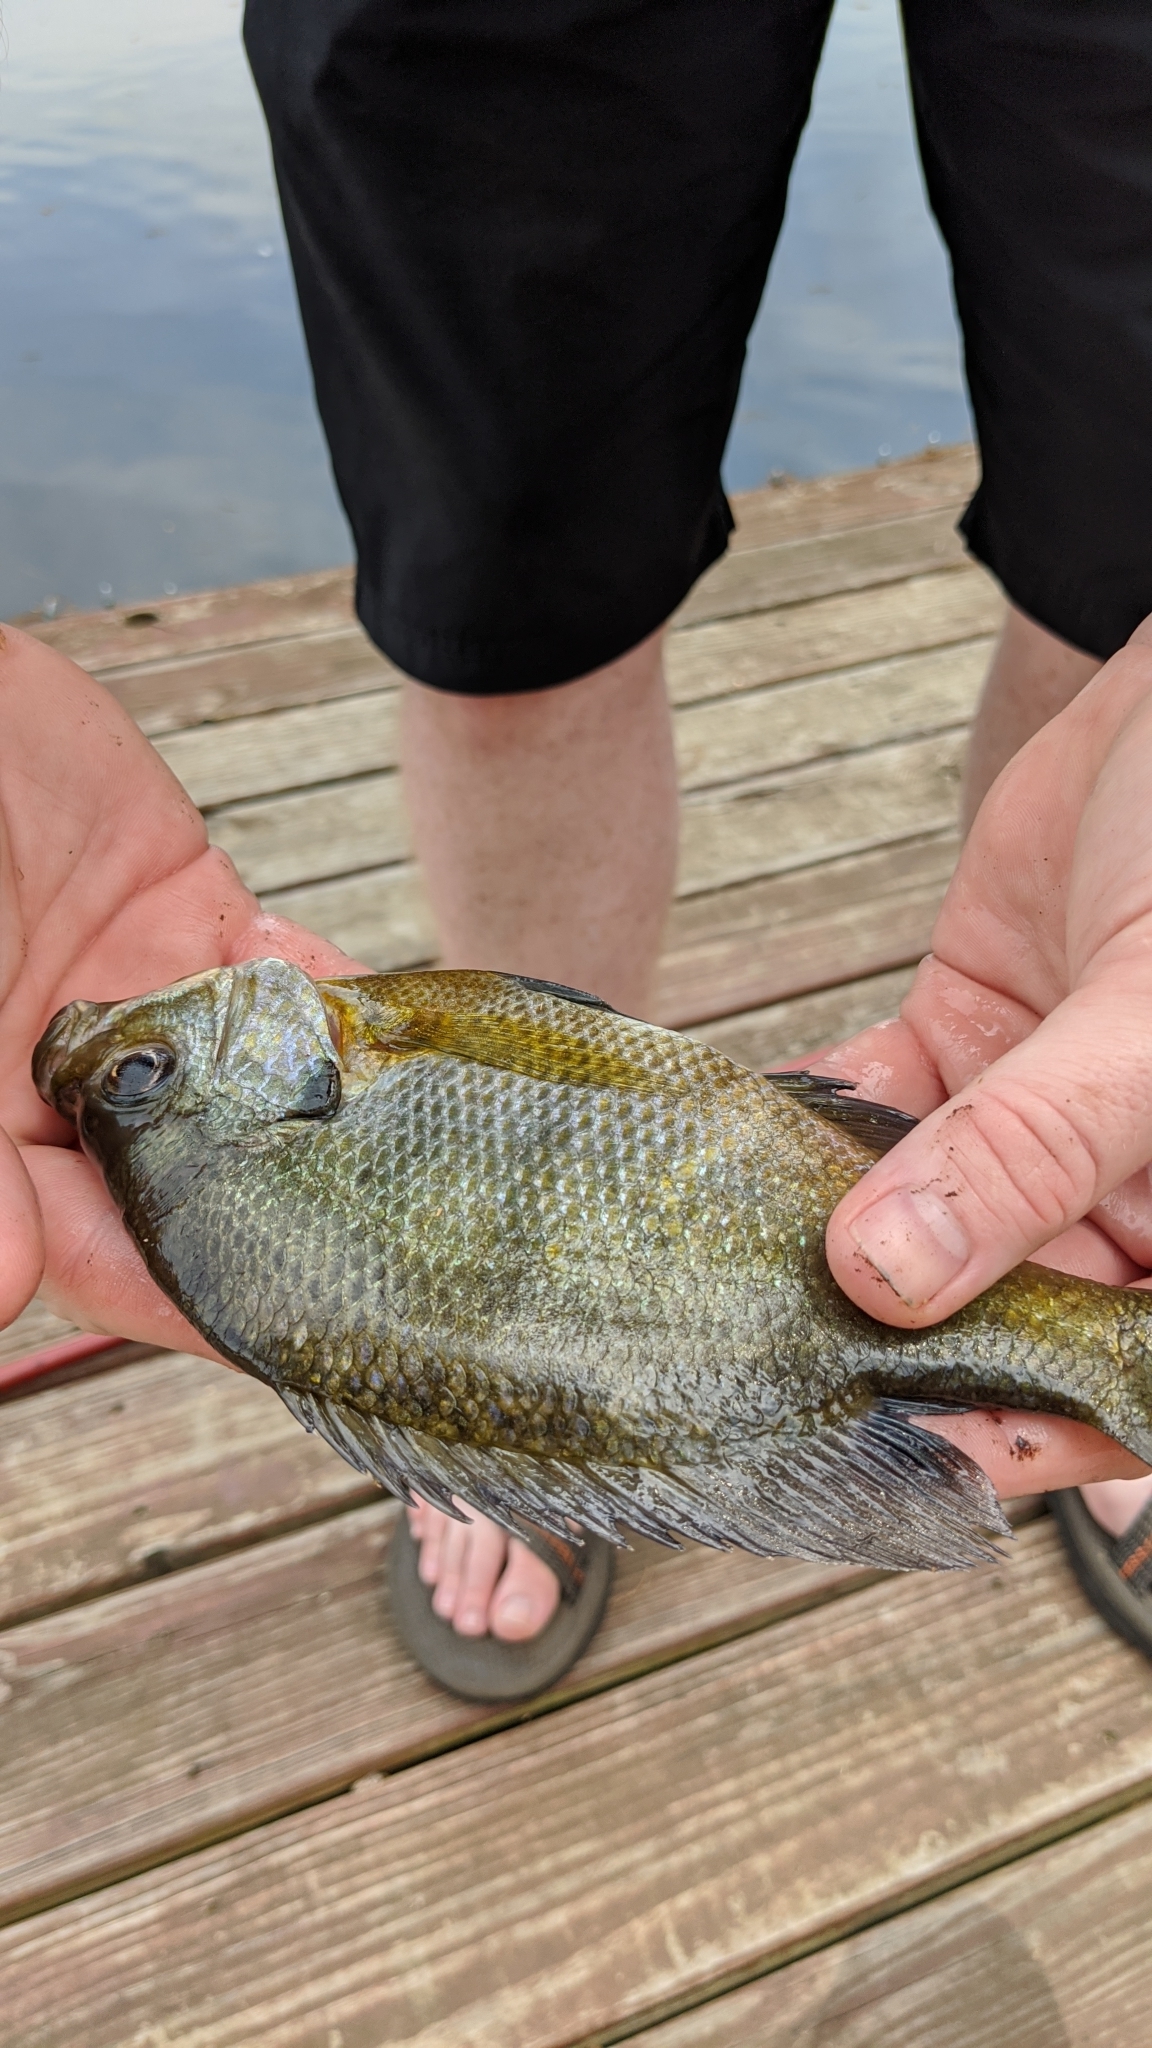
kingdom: Animalia
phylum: Chordata
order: Perciformes
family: Centrarchidae
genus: Lepomis
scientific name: Lepomis macrochirus
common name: Bluegill
